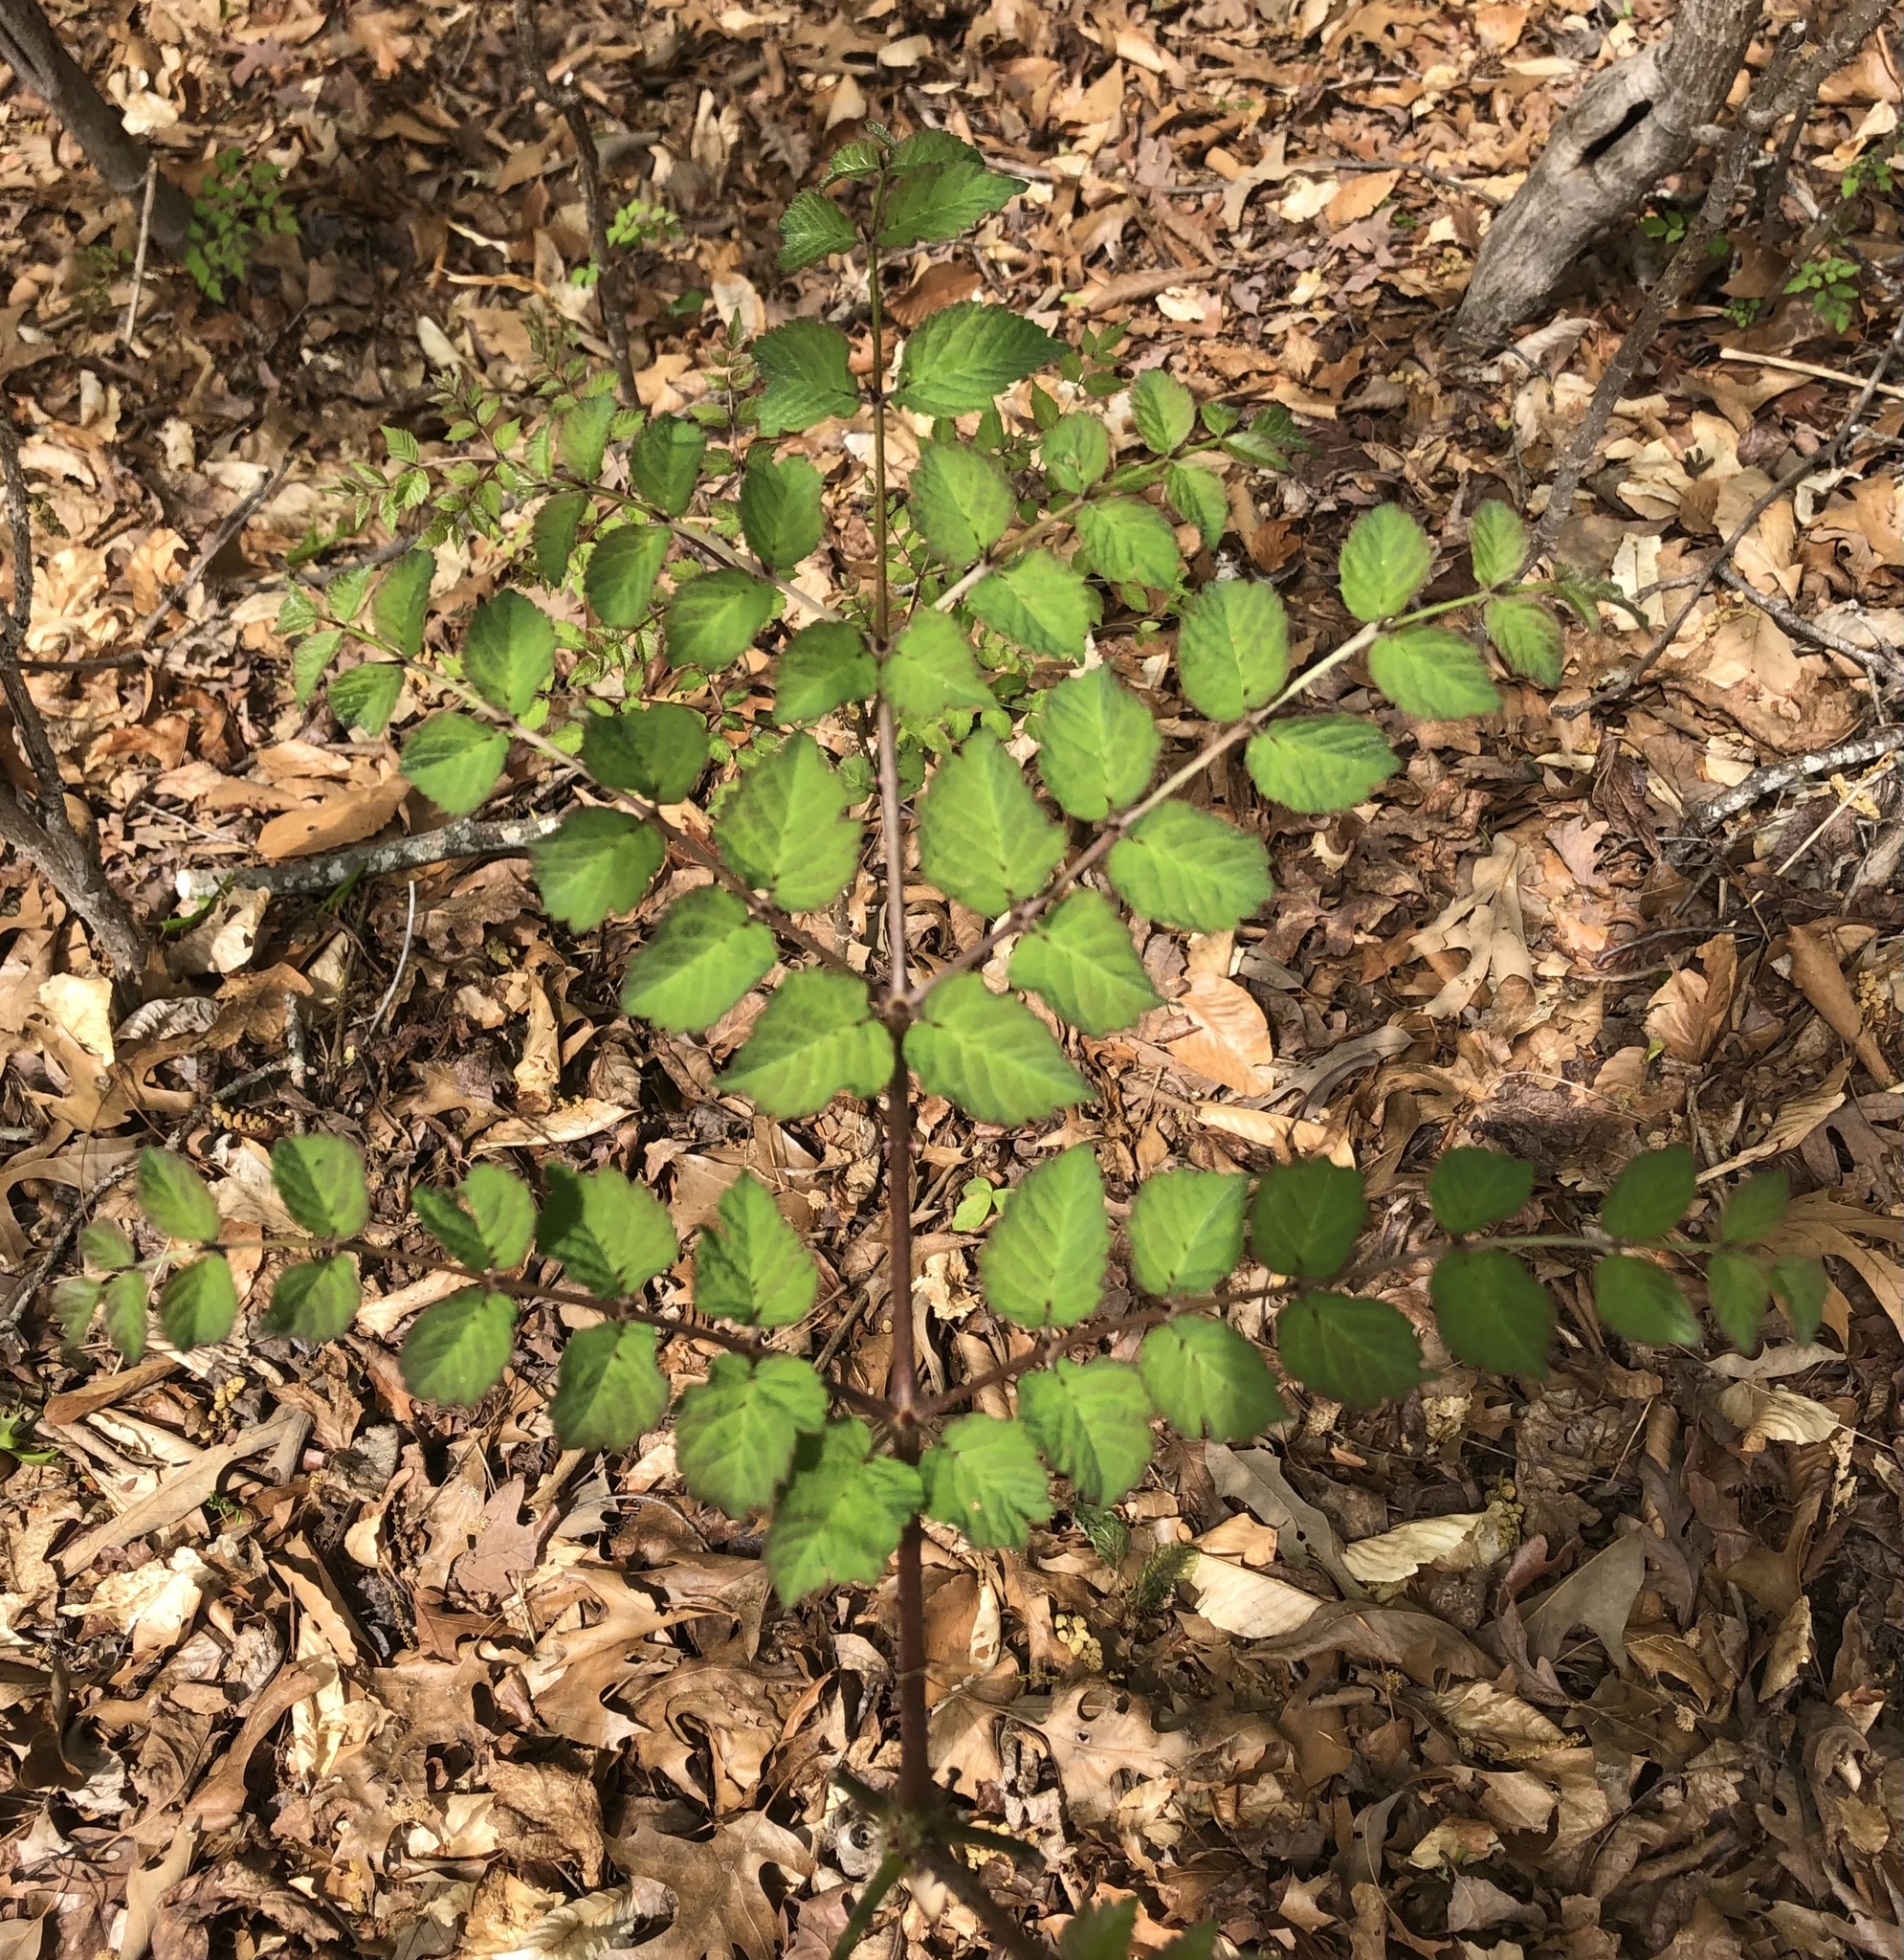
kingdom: Plantae
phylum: Tracheophyta
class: Magnoliopsida
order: Apiales
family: Araliaceae
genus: Aralia
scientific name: Aralia spinosa
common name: Hercules'-club
